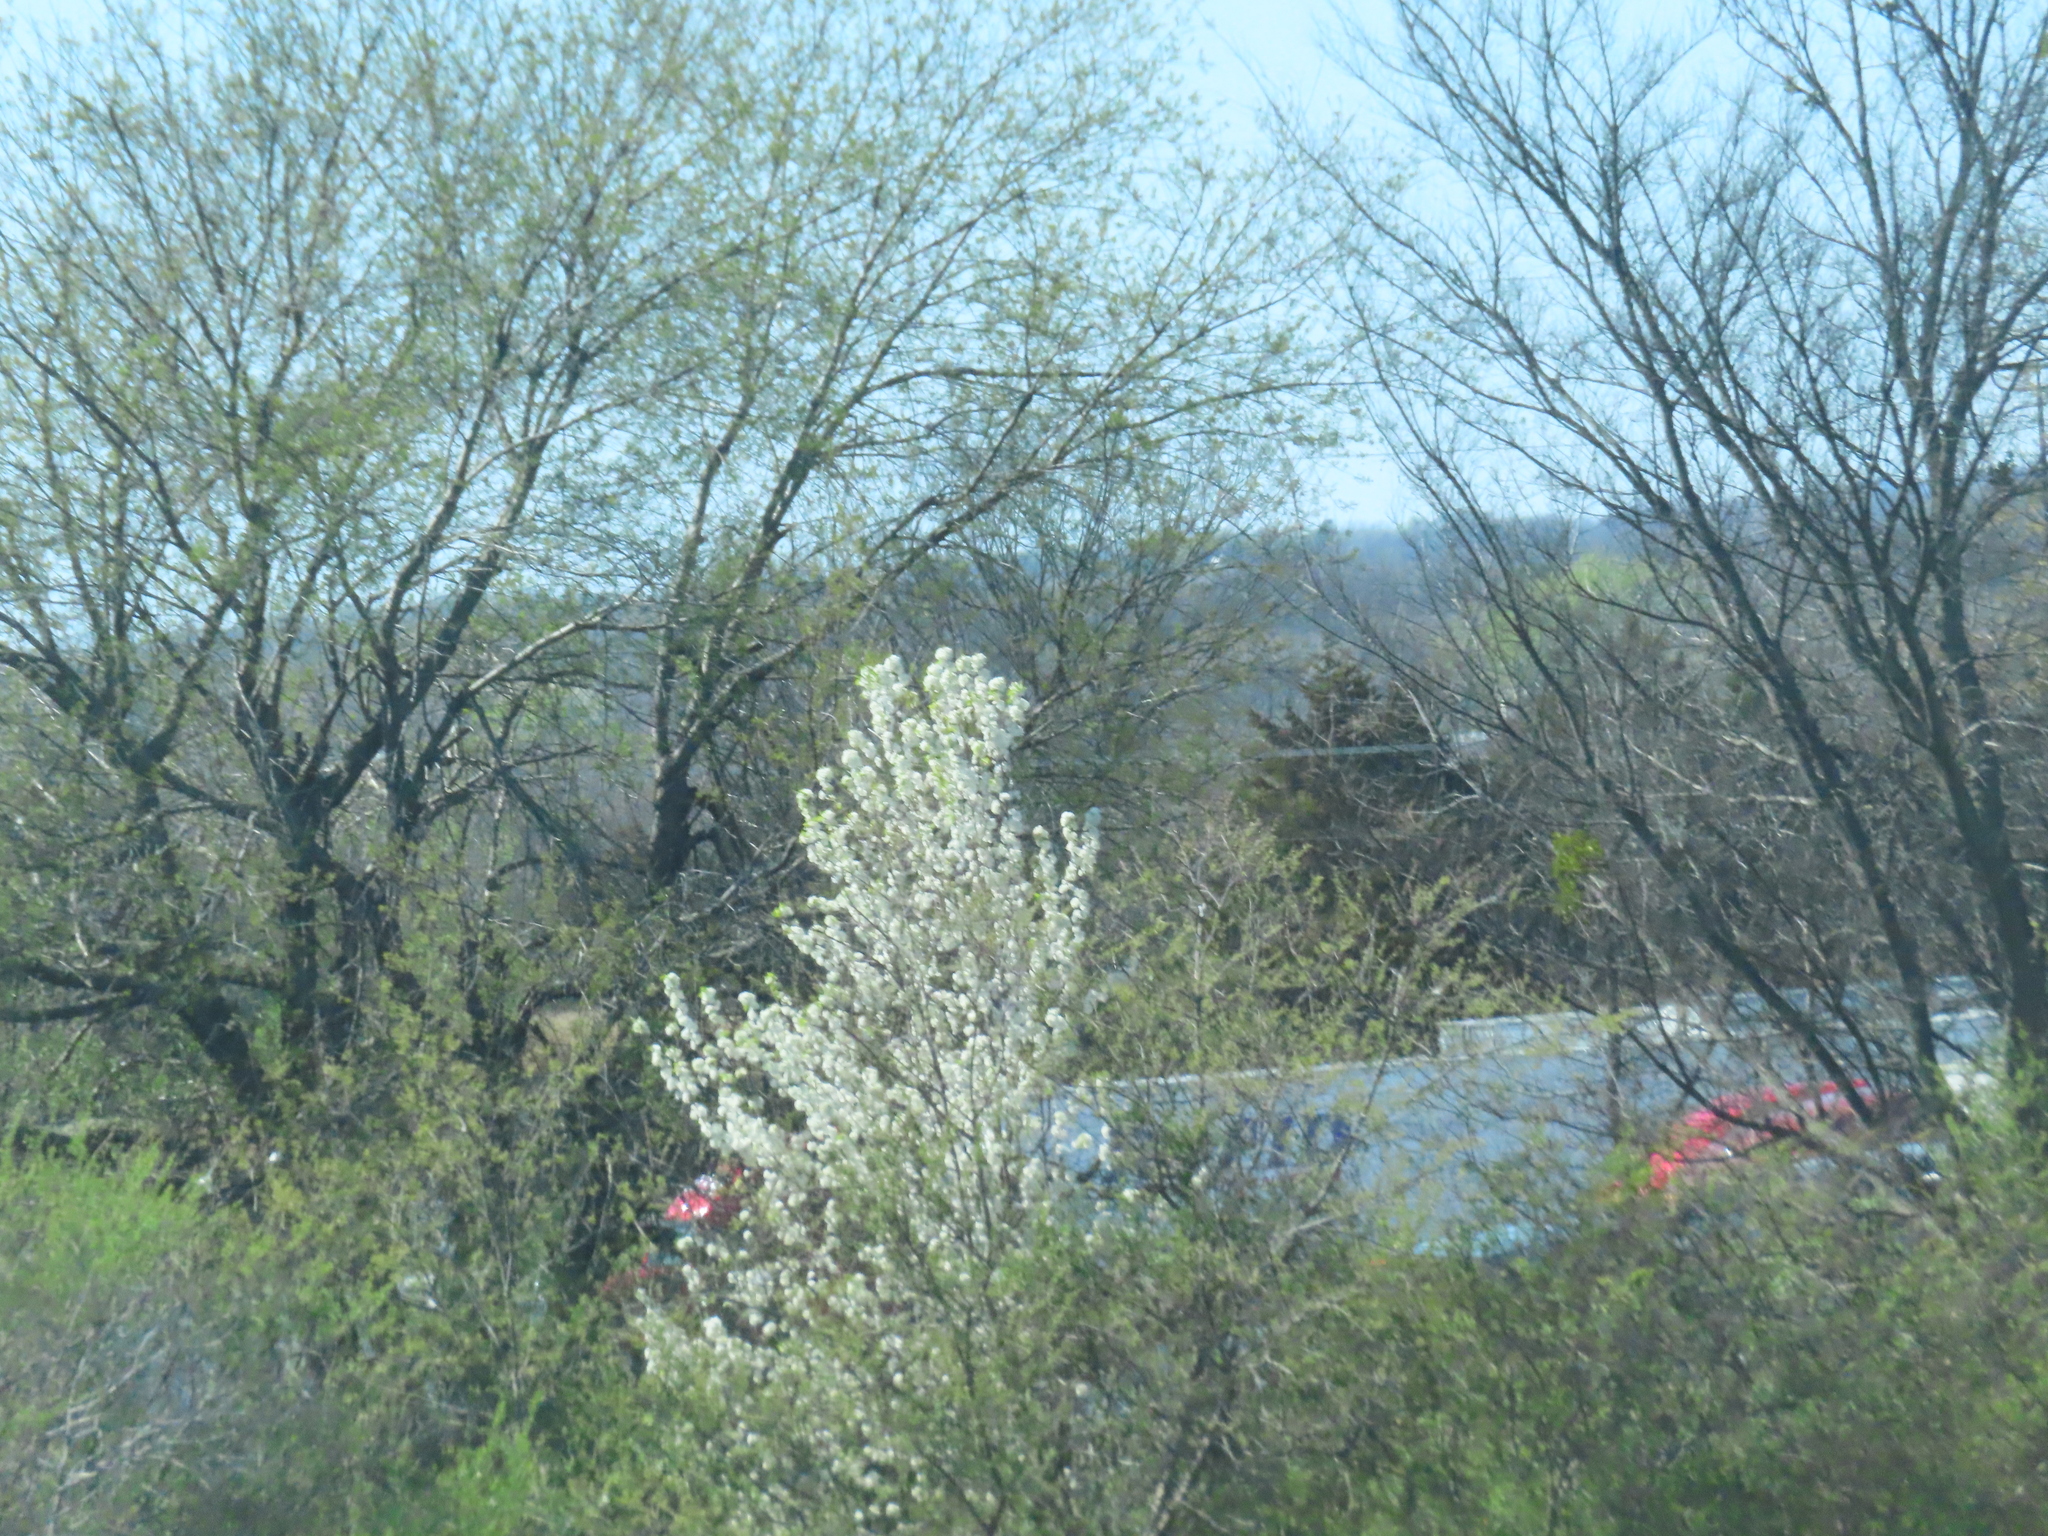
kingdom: Plantae
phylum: Tracheophyta
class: Magnoliopsida
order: Rosales
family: Rosaceae
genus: Pyrus
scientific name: Pyrus calleryana
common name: Callery pear
